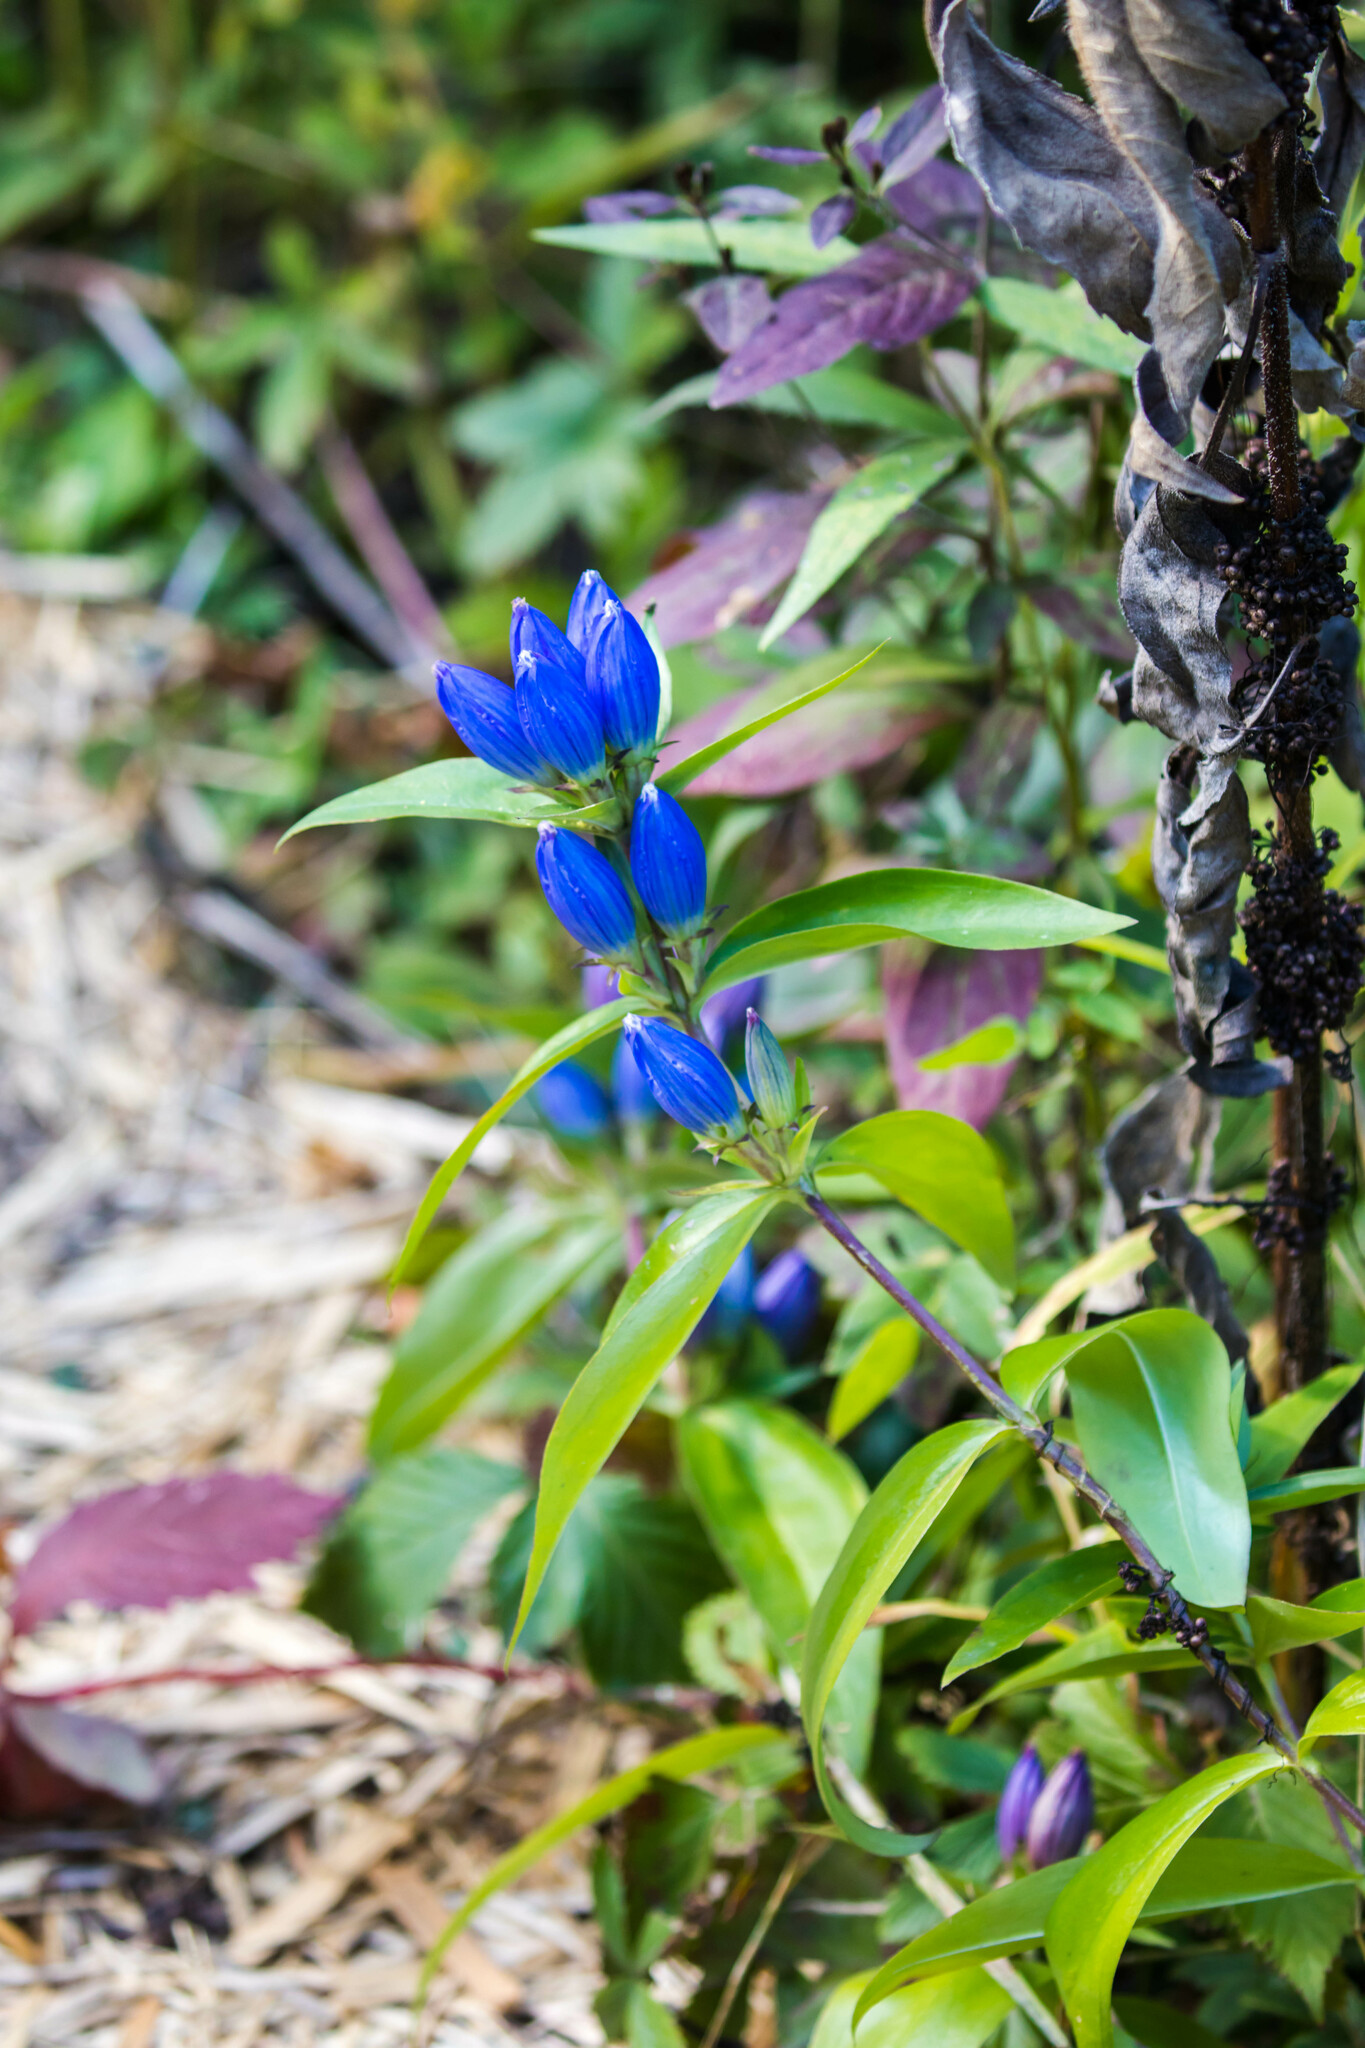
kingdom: Plantae
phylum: Tracheophyta
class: Magnoliopsida
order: Gentianales
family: Gentianaceae
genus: Gentiana
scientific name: Gentiana andrewsii
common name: Bottle gentian
